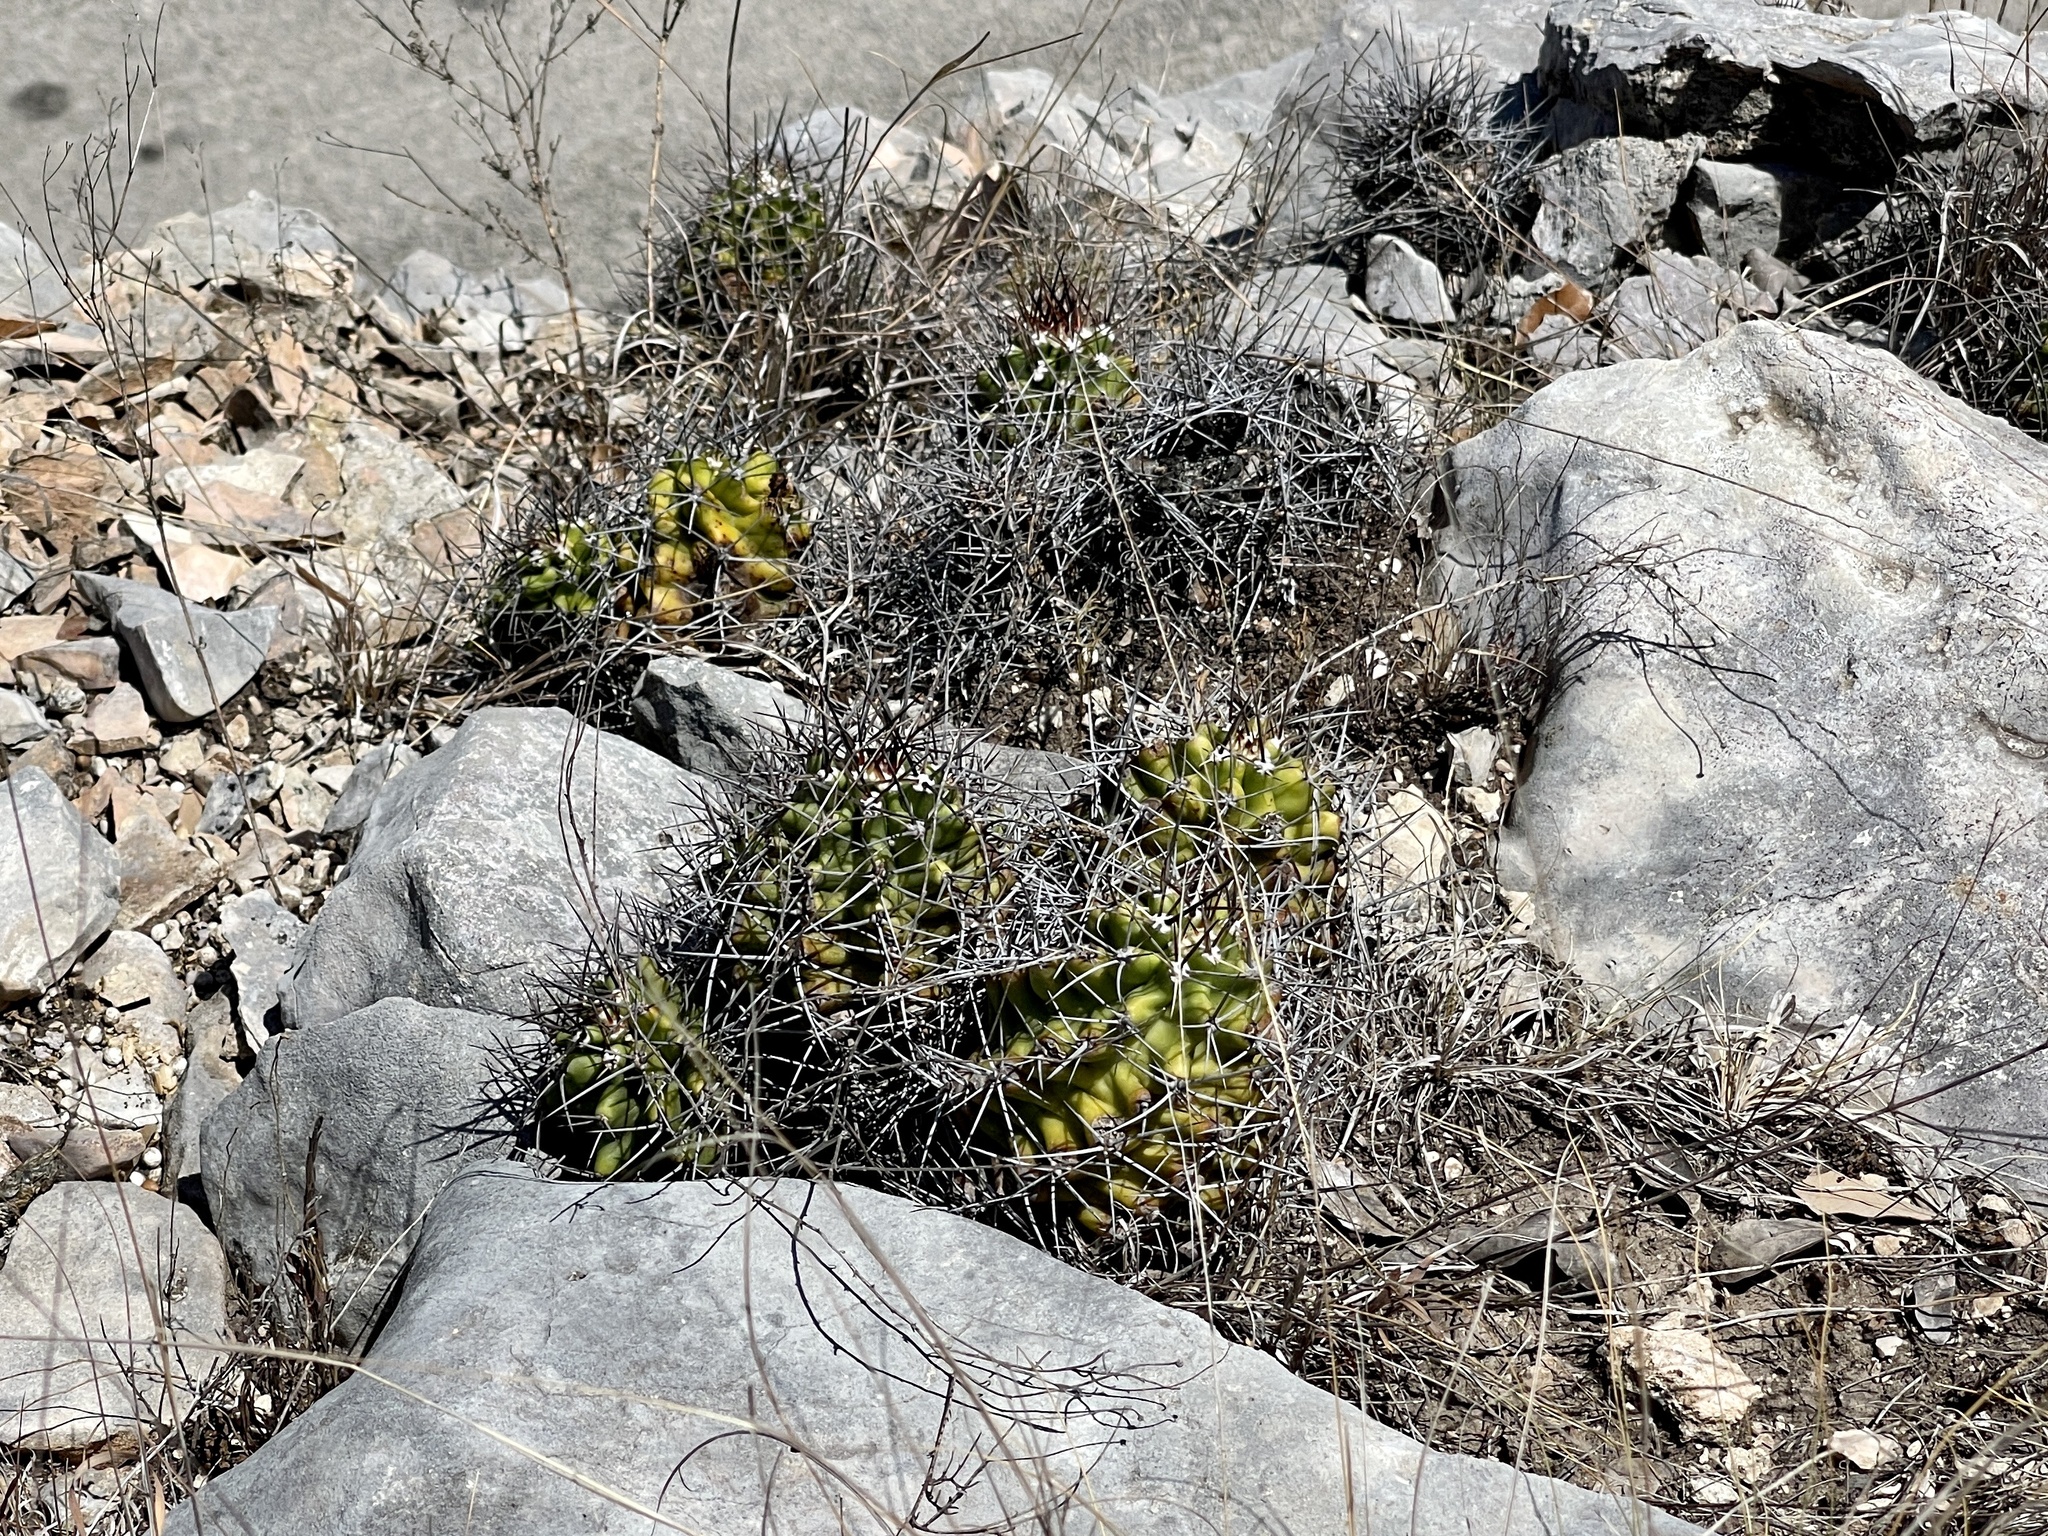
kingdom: Plantae
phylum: Tracheophyta
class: Magnoliopsida
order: Caryophyllales
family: Cactaceae
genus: Echinocereus
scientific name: Echinocereus coccineus
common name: Scarlet hedgehog cactus
